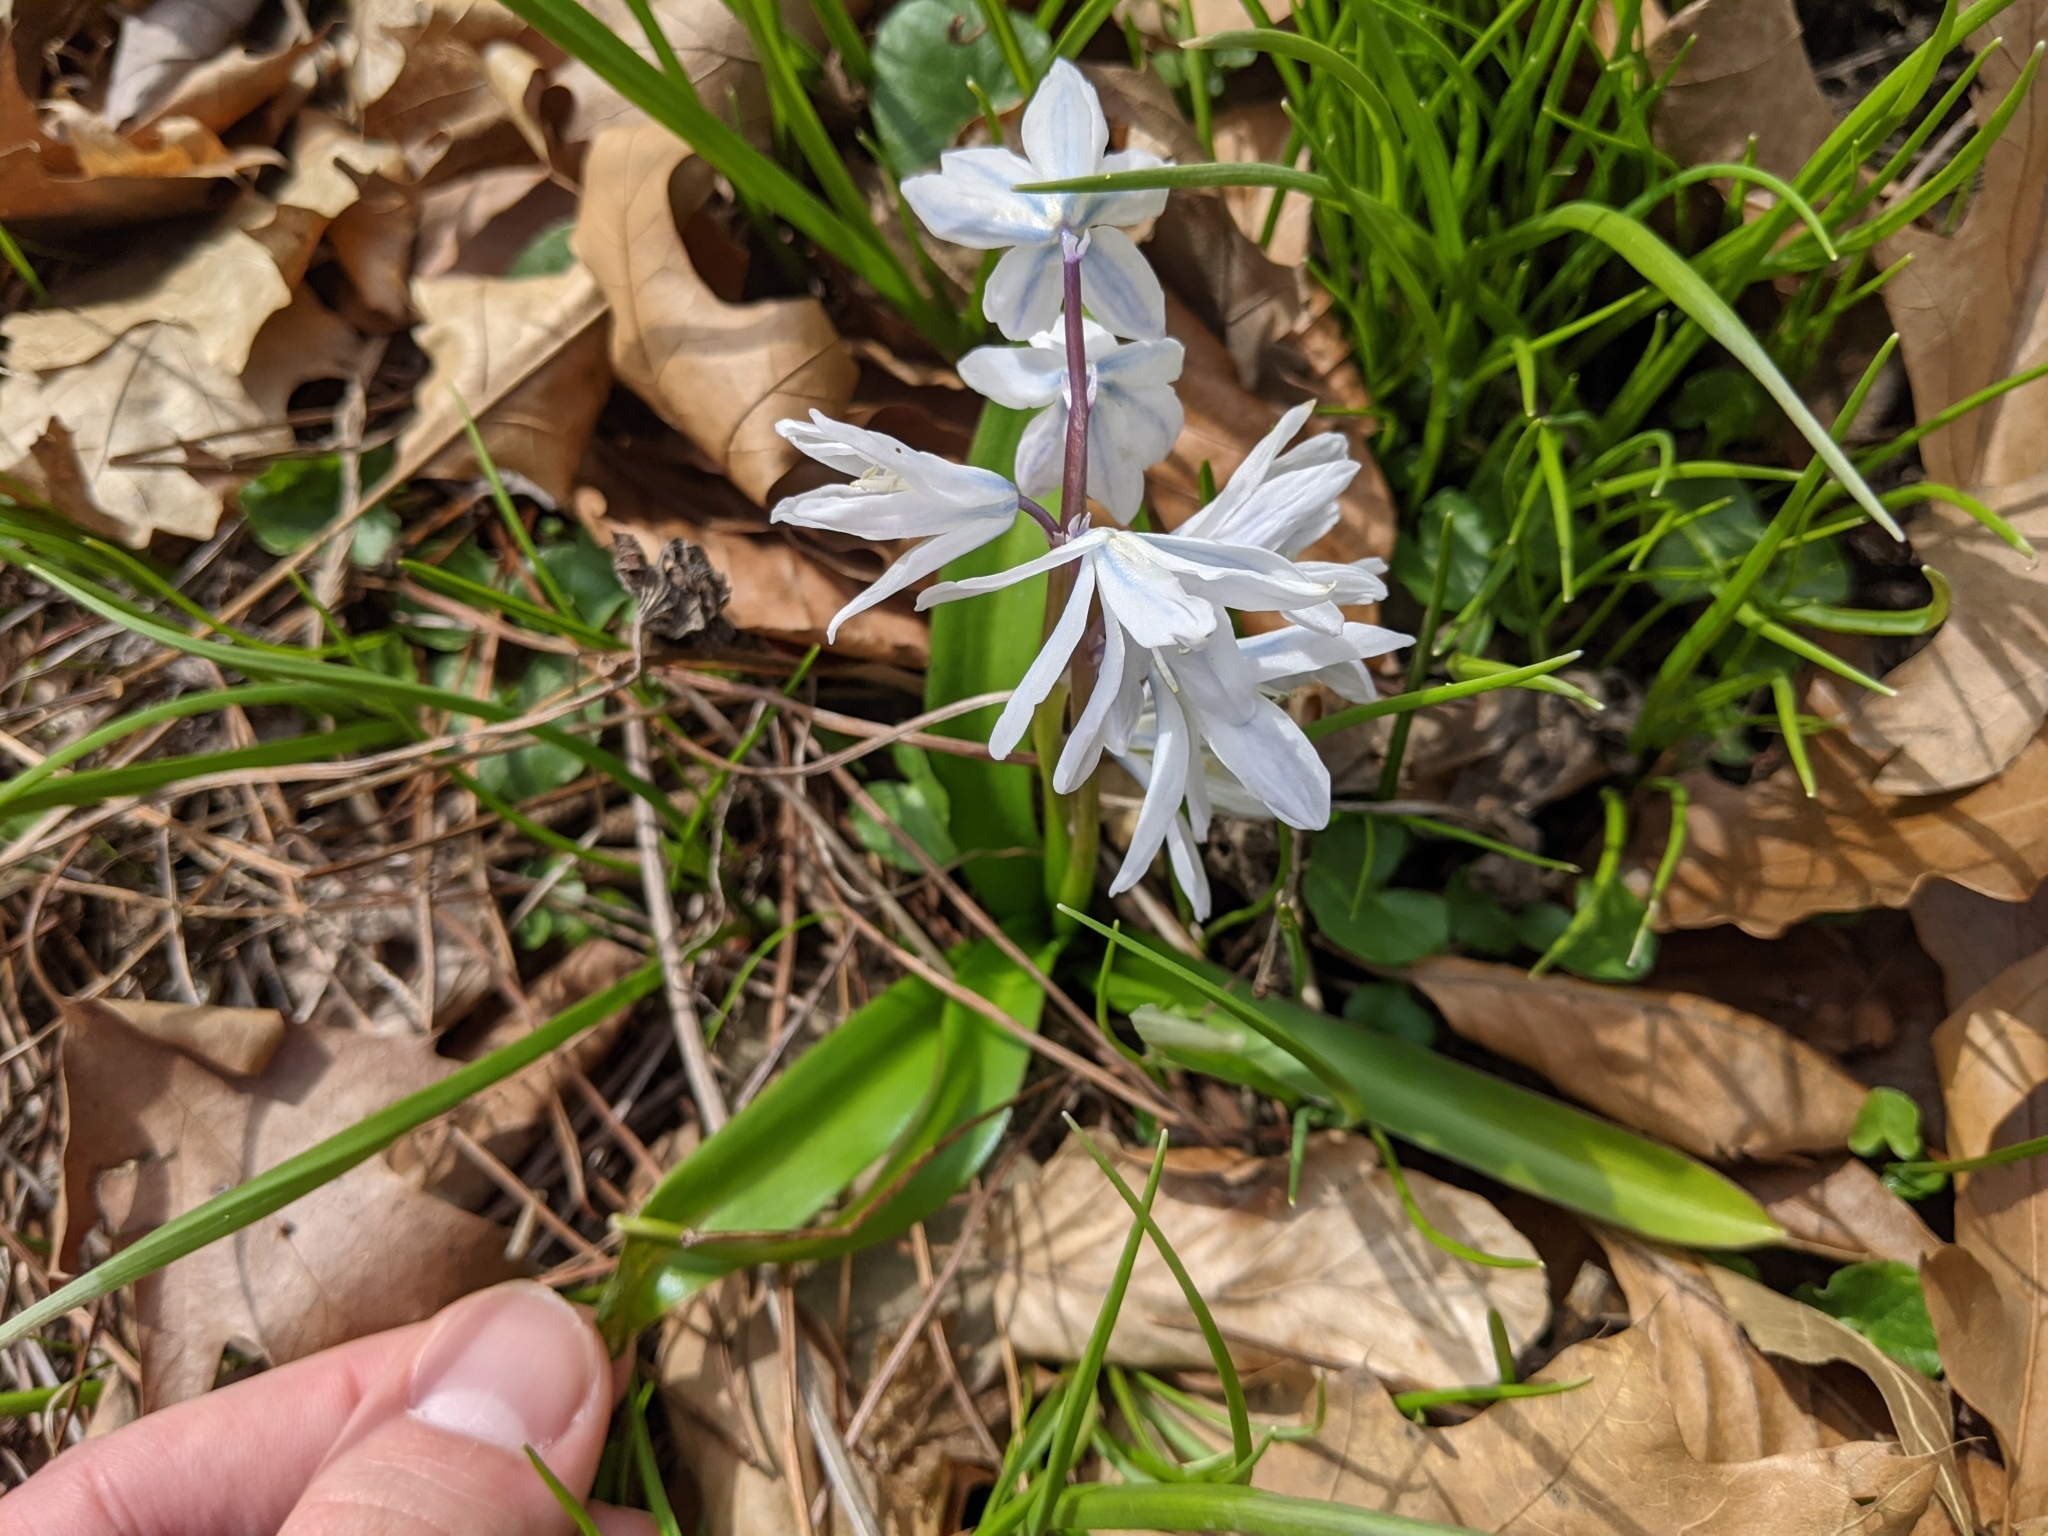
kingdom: Plantae
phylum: Tracheophyta
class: Liliopsida
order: Asparagales
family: Asparagaceae
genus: Scilla
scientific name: Scilla mischtschenkoana
